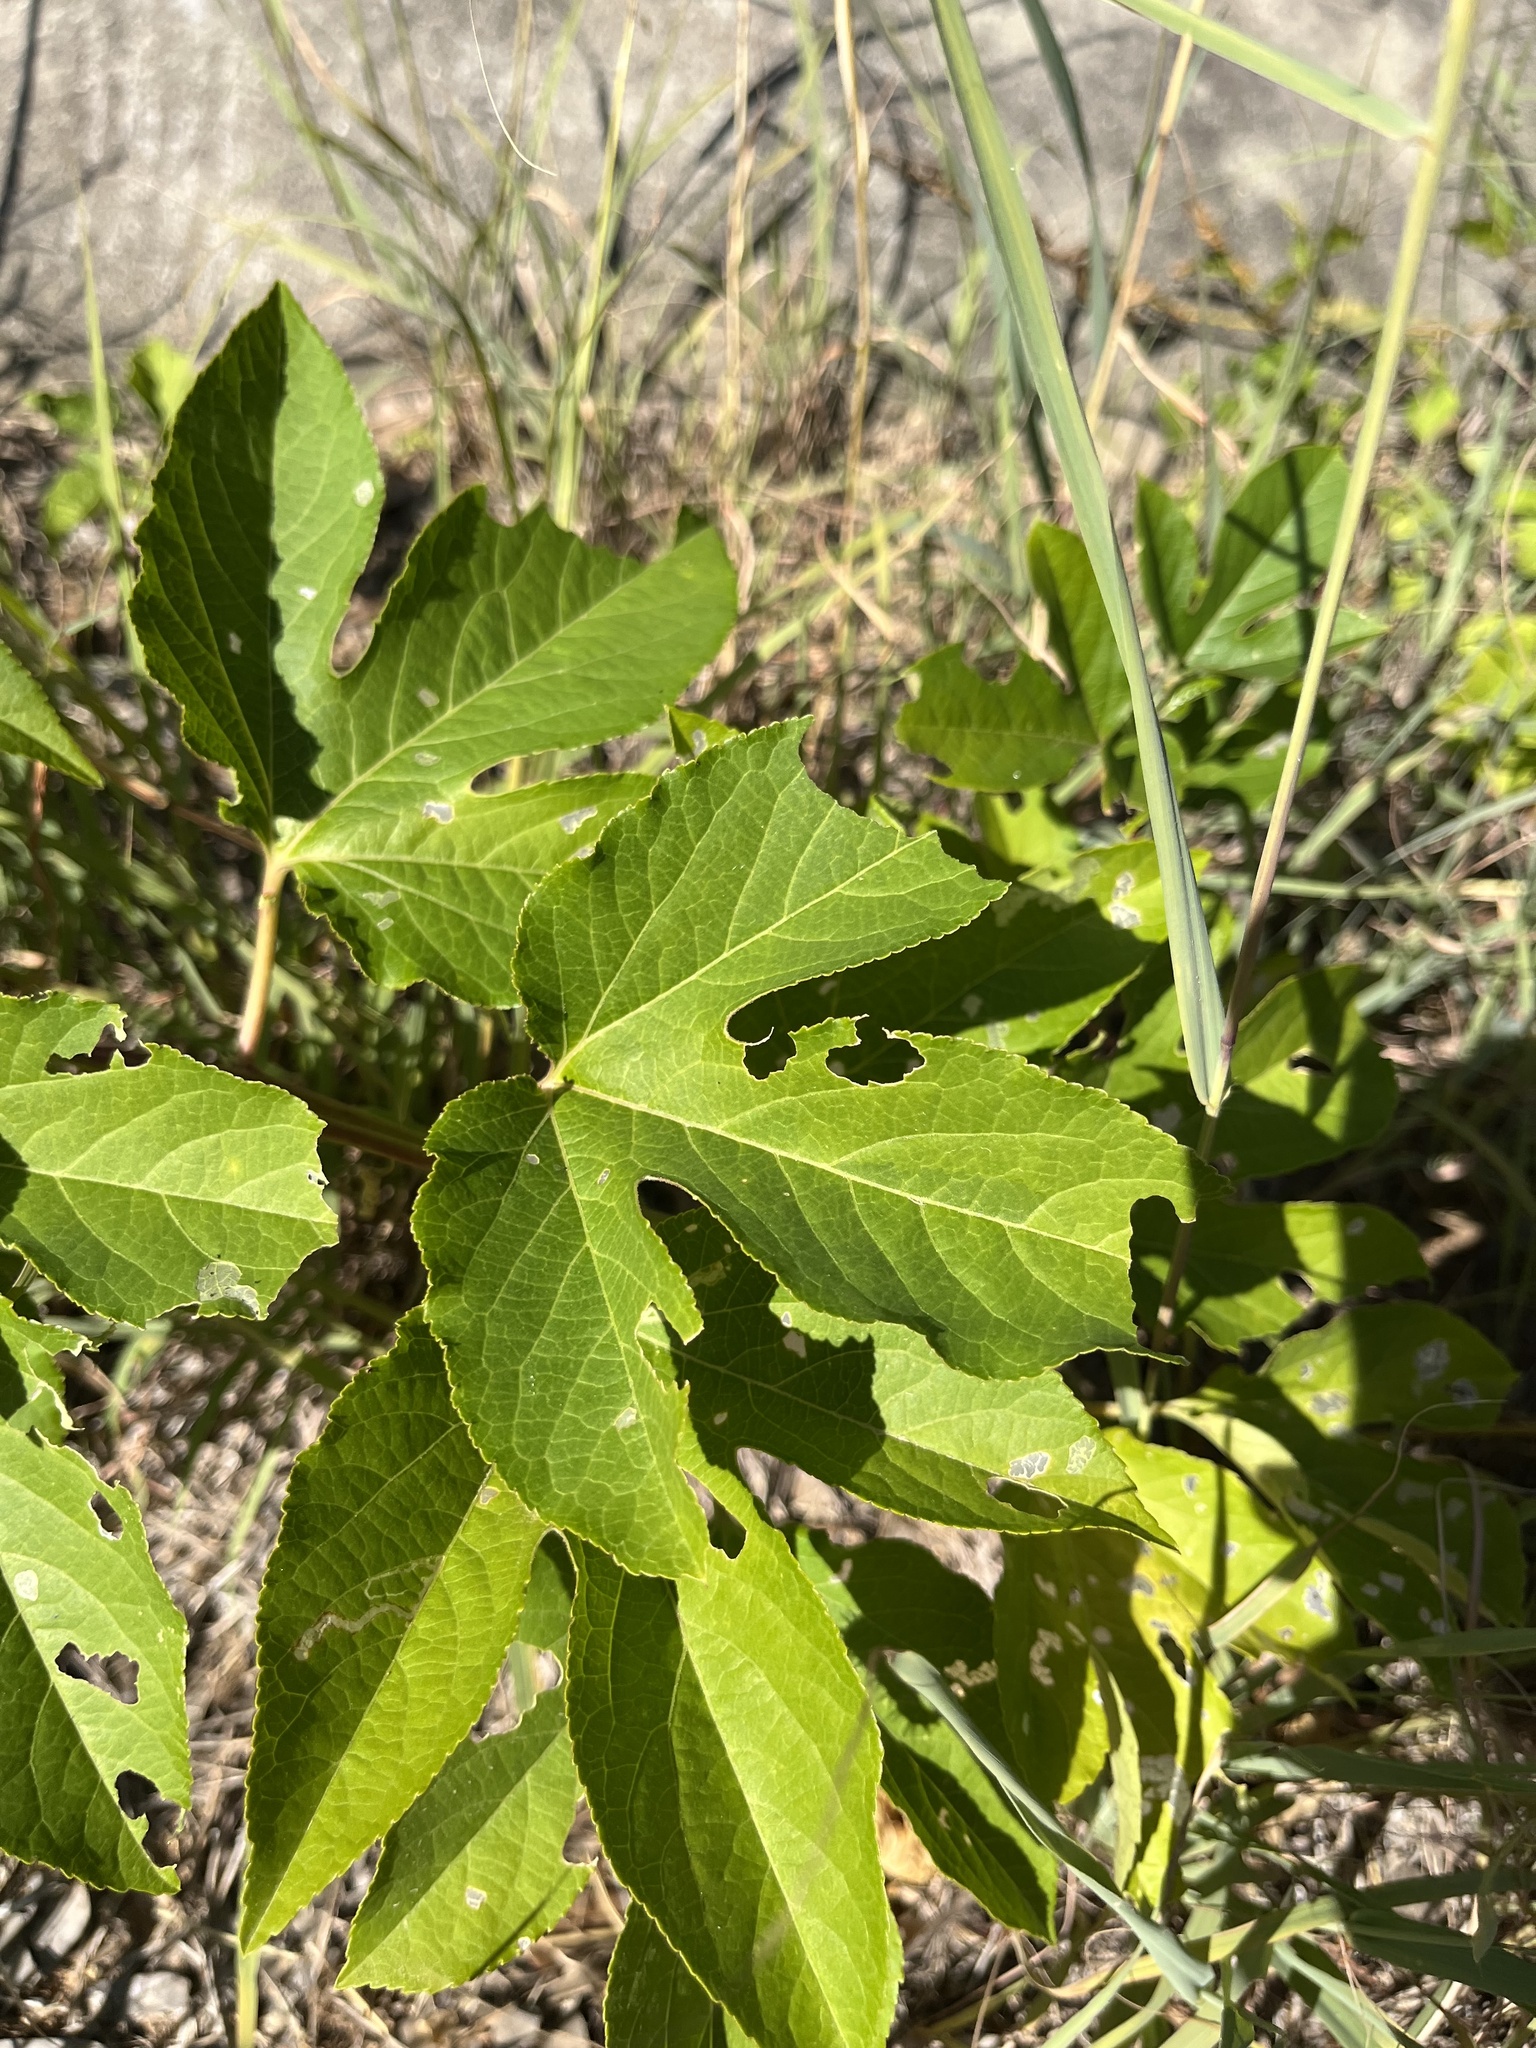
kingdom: Plantae
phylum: Tracheophyta
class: Magnoliopsida
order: Malpighiales
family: Passifloraceae
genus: Passiflora
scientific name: Passiflora incarnata
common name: Apricot-vine
